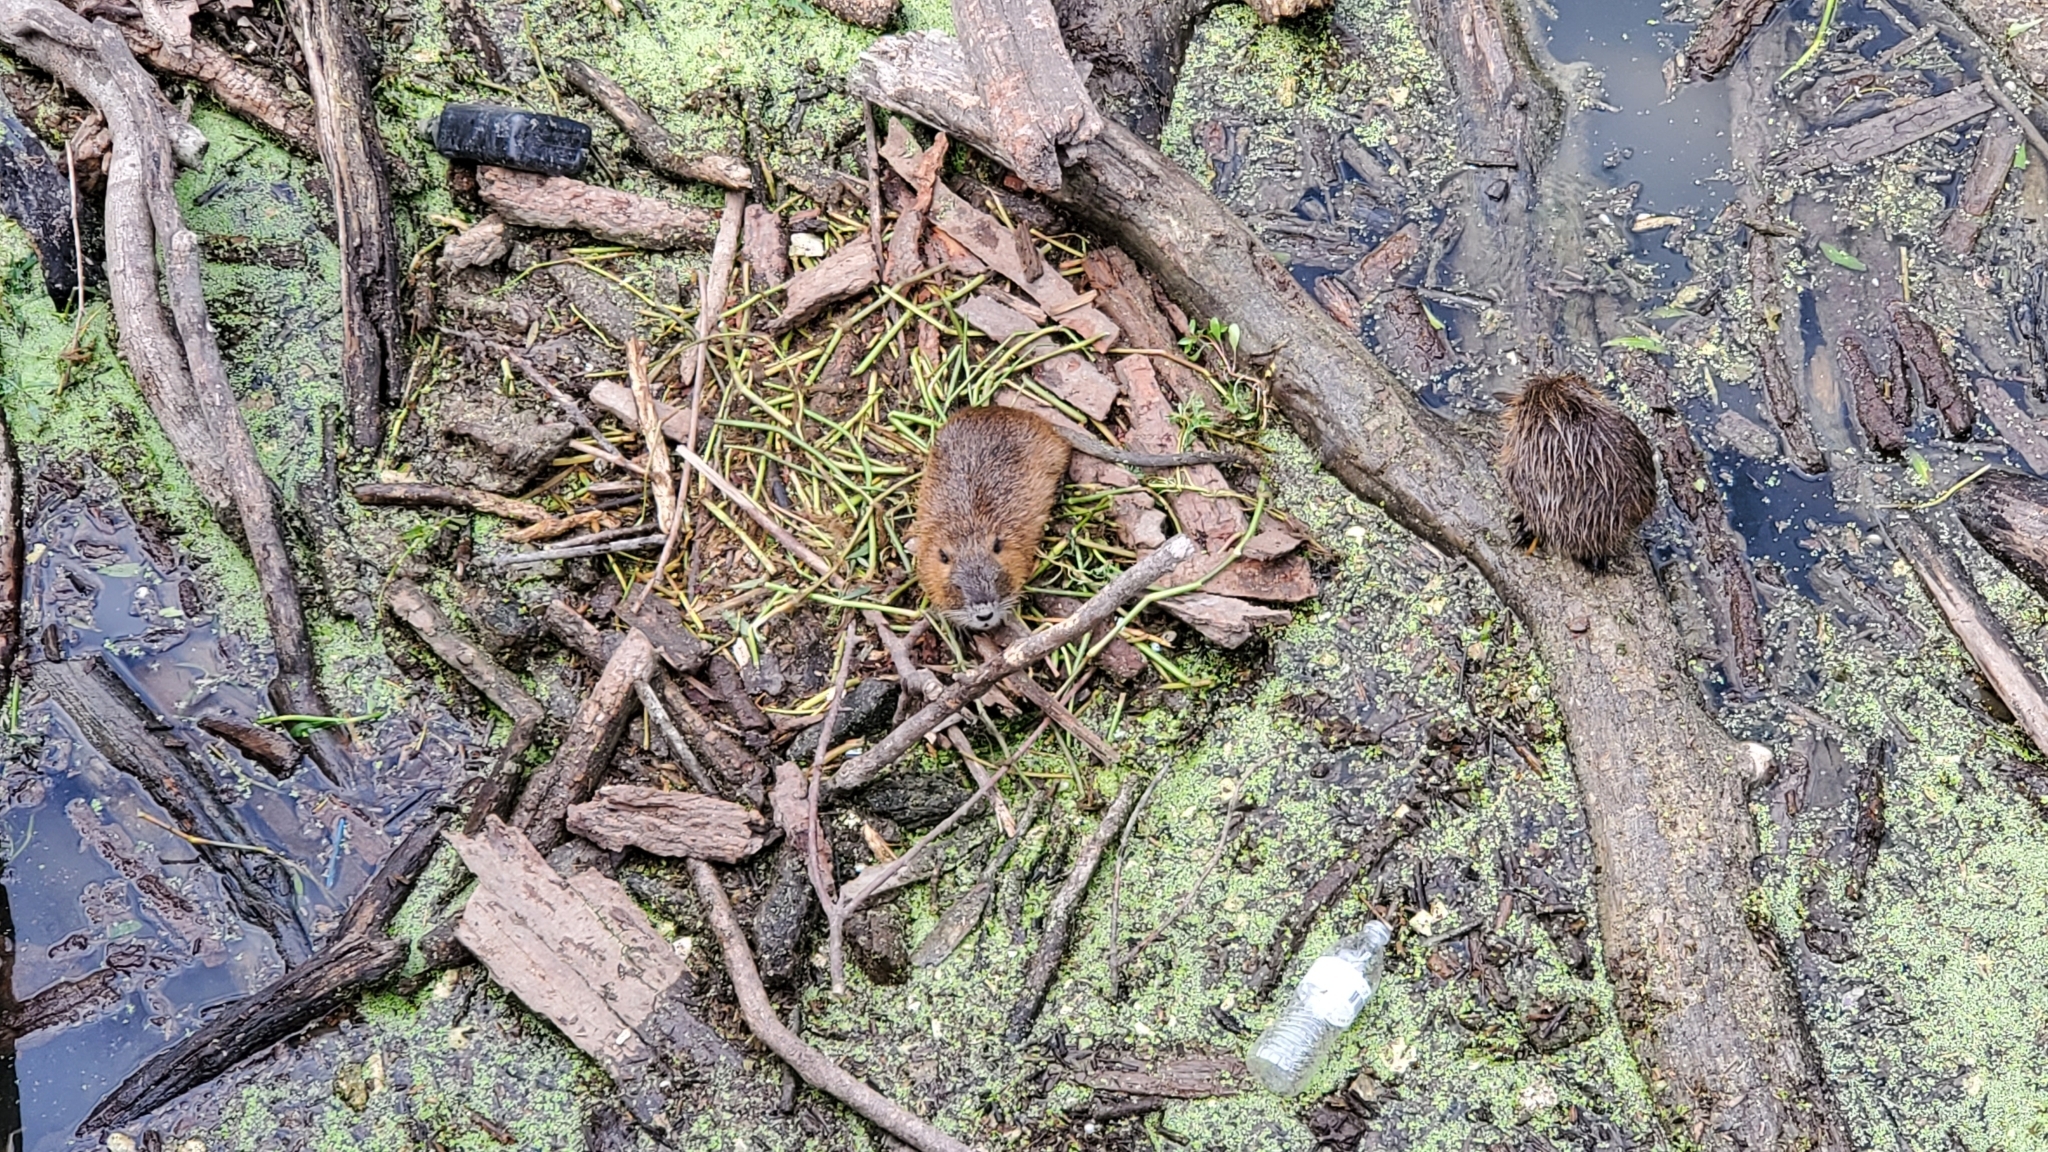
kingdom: Animalia
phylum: Chordata
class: Mammalia
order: Rodentia
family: Myocastoridae
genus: Myocastor
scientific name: Myocastor coypus
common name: Coypu
